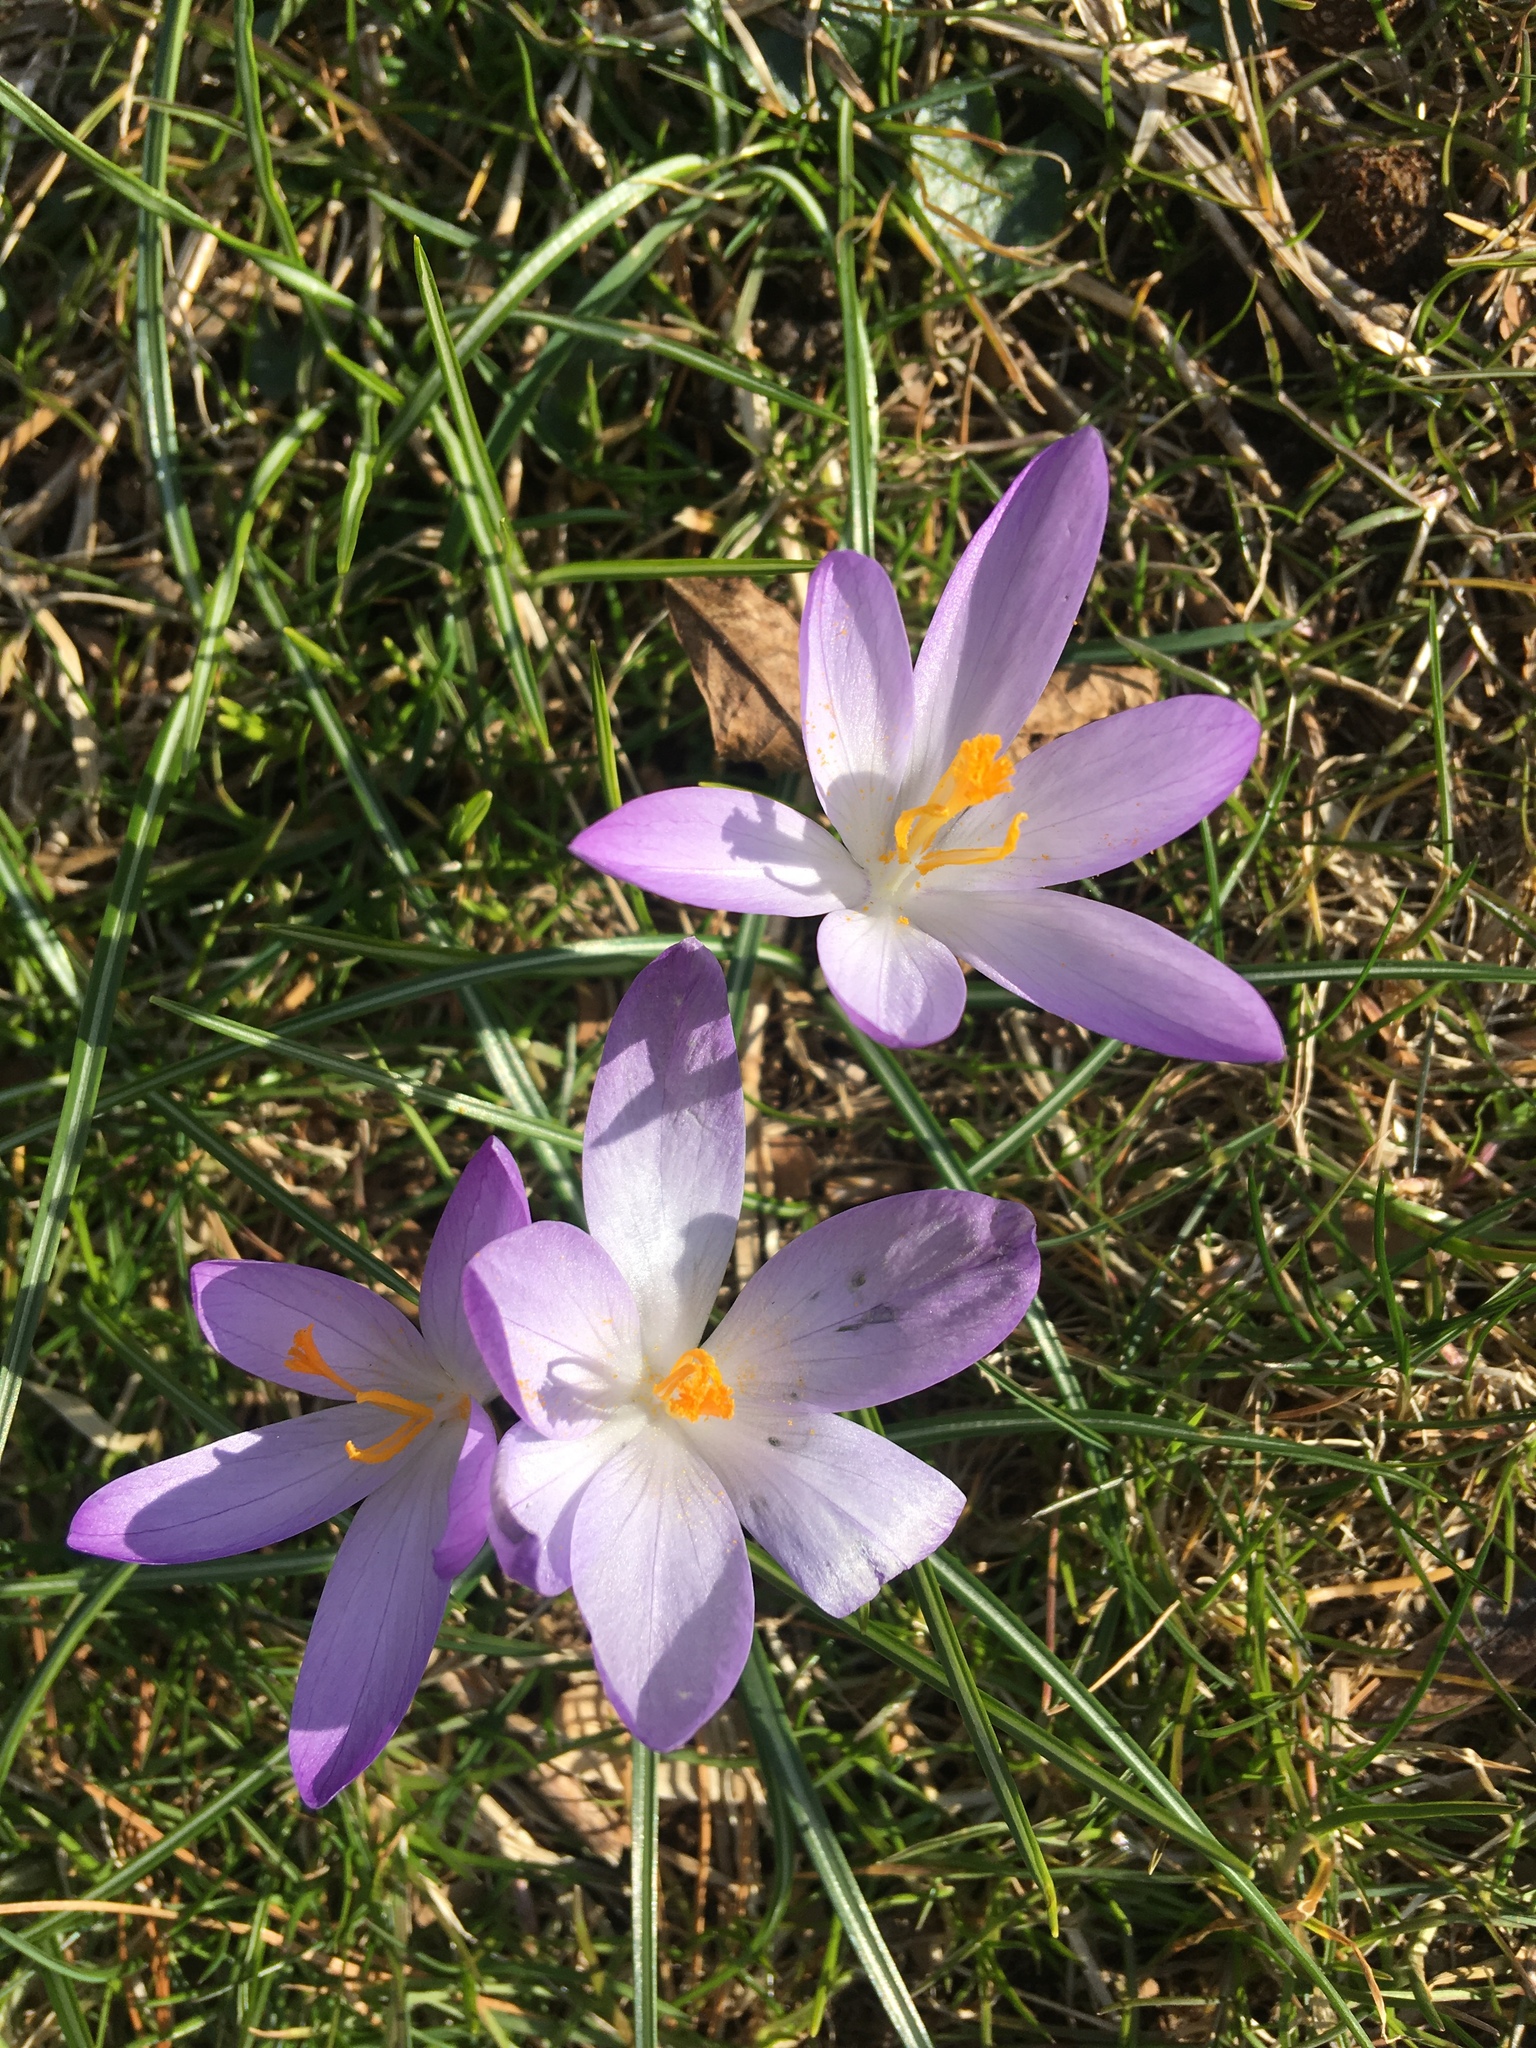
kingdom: Plantae
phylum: Tracheophyta
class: Liliopsida
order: Asparagales
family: Iridaceae
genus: Crocus
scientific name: Crocus tommasinianus
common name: Early crocus
